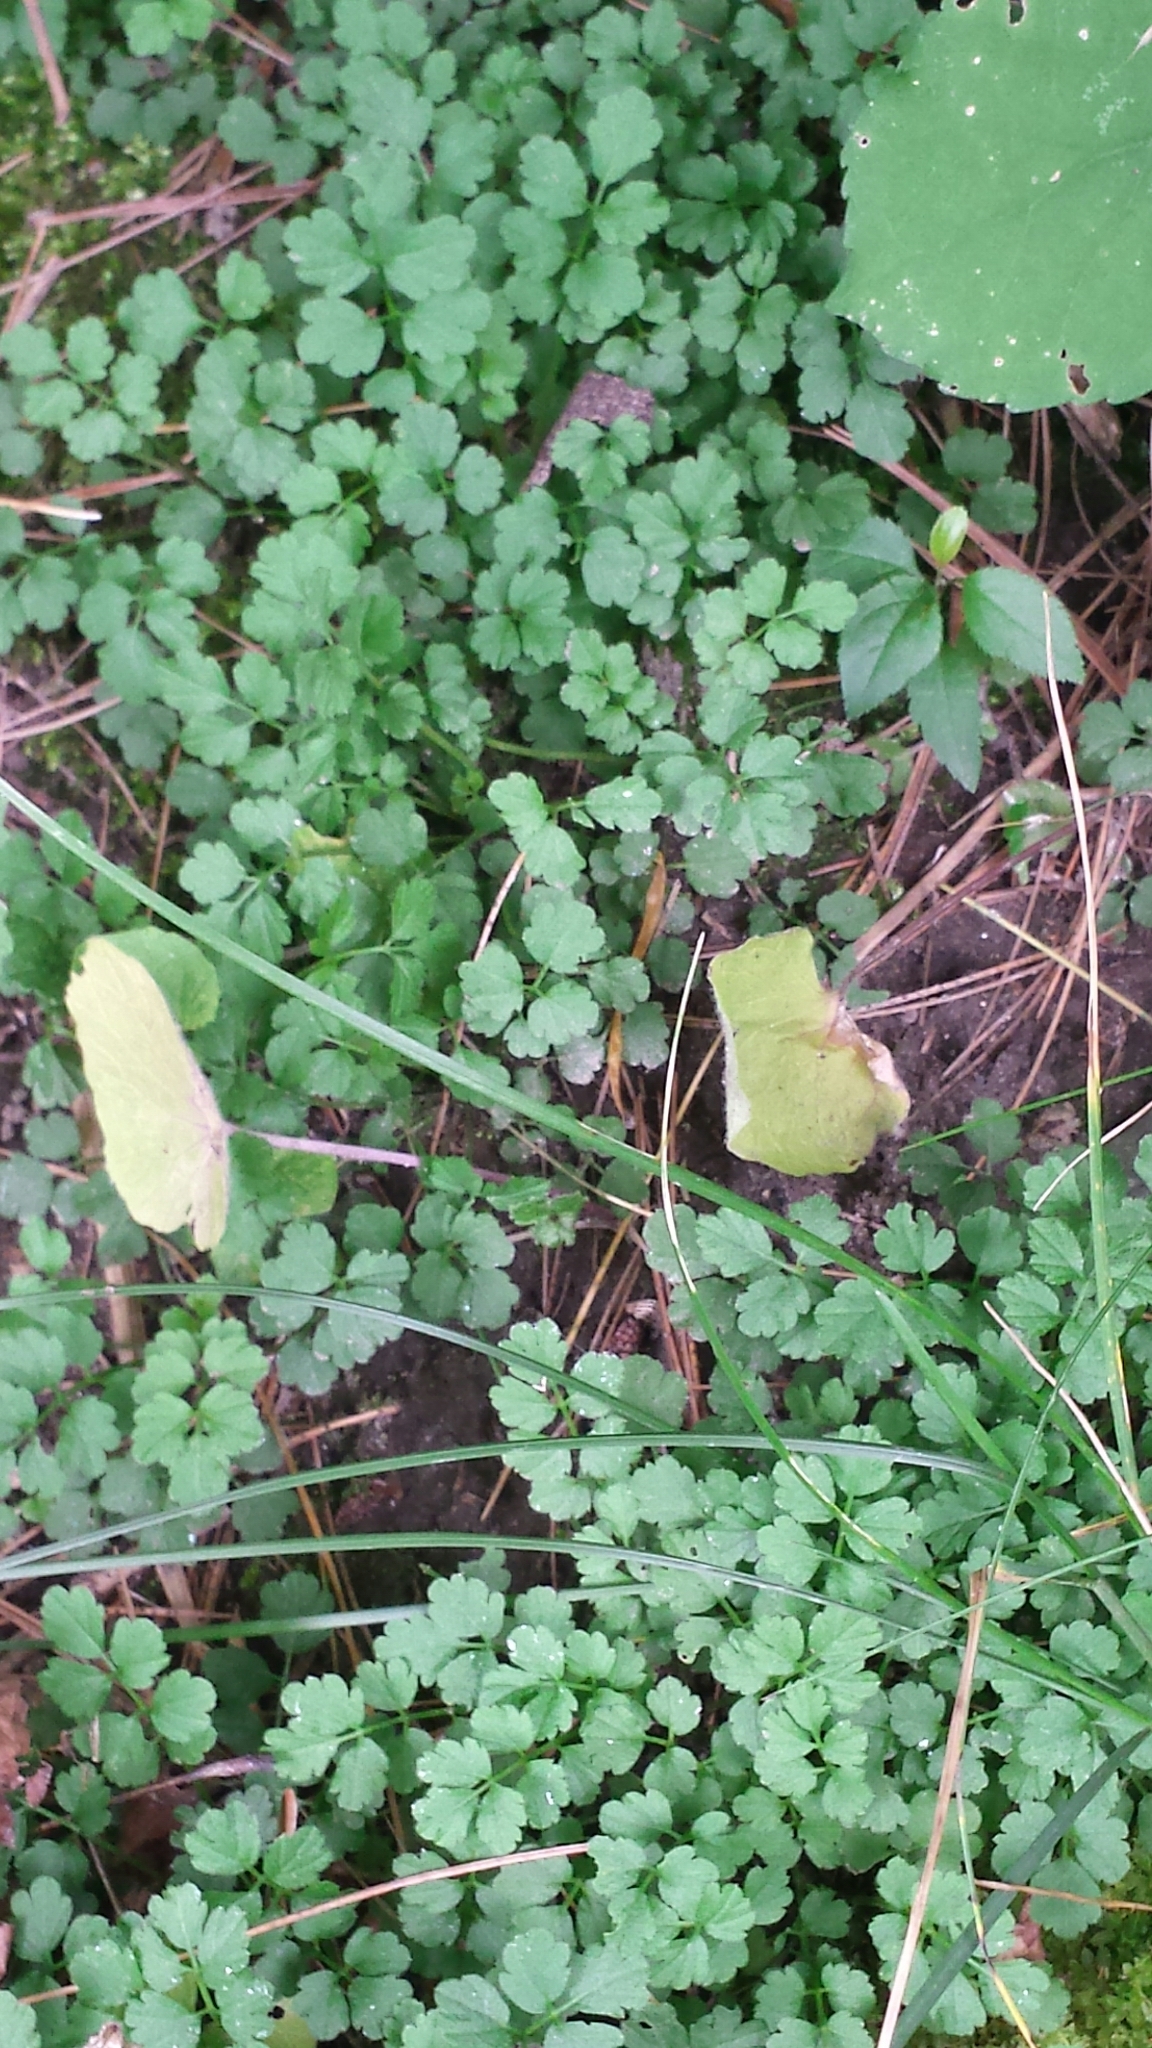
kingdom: Plantae
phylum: Tracheophyta
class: Magnoliopsida
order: Brassicales
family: Brassicaceae
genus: Cardamine
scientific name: Cardamine impatiens
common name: Narrow-leaved bitter-cress
